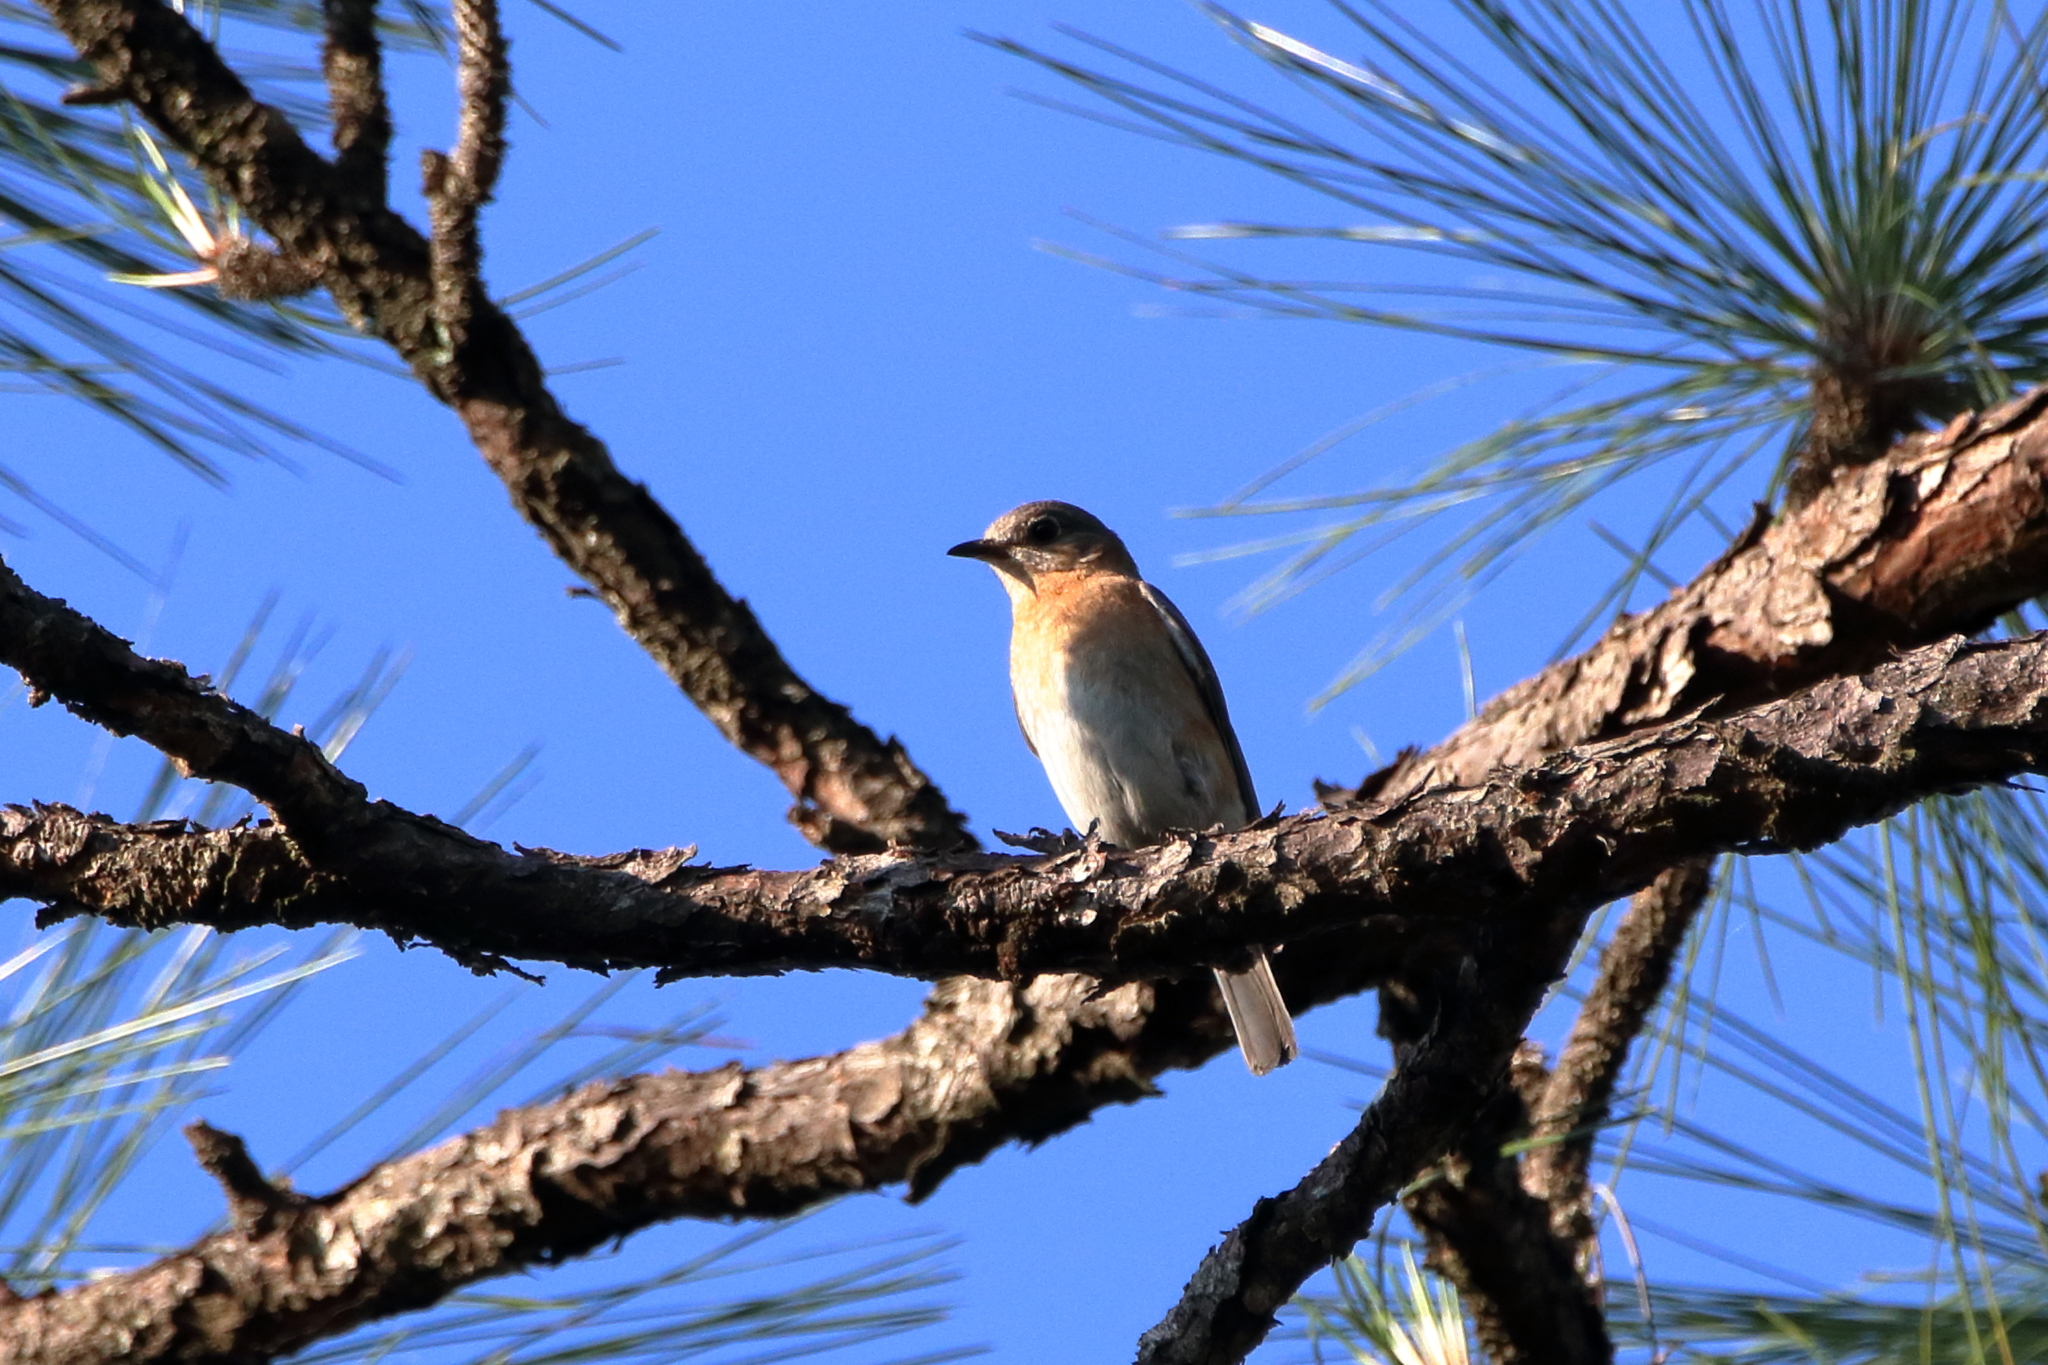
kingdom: Animalia
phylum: Chordata
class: Aves
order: Passeriformes
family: Turdidae
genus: Sialia
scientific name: Sialia sialis
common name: Eastern bluebird
